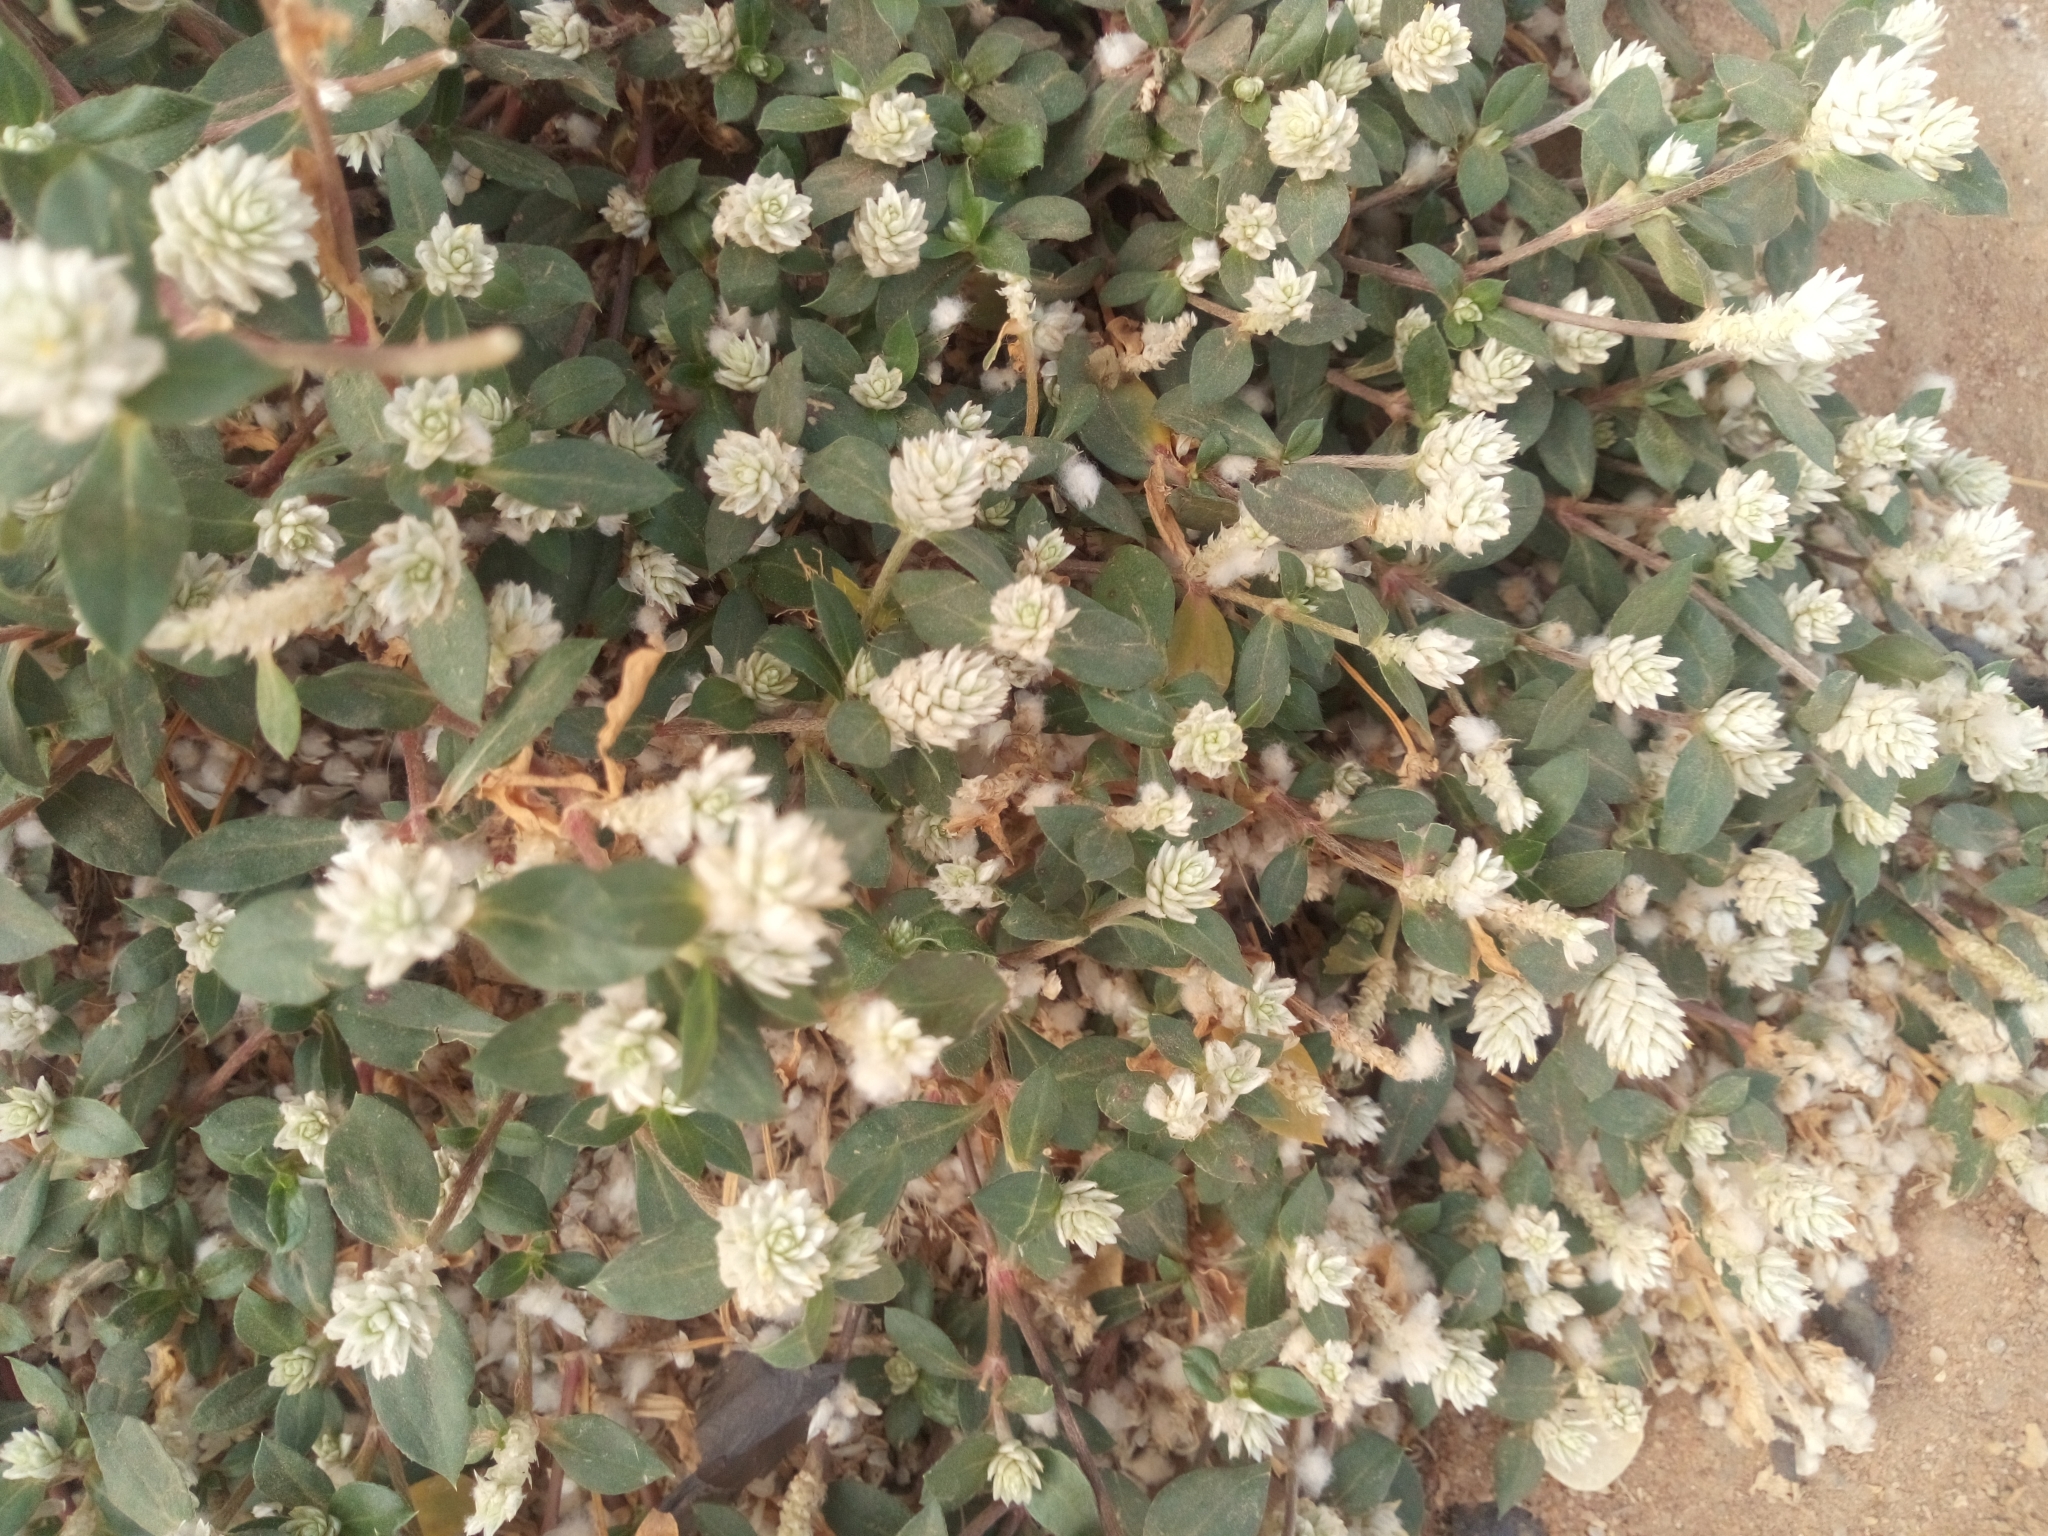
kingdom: Plantae
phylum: Tracheophyta
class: Magnoliopsida
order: Caryophyllales
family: Amaranthaceae
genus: Gomphrena
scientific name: Gomphrena celosioides
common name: Gomphrena-weed
